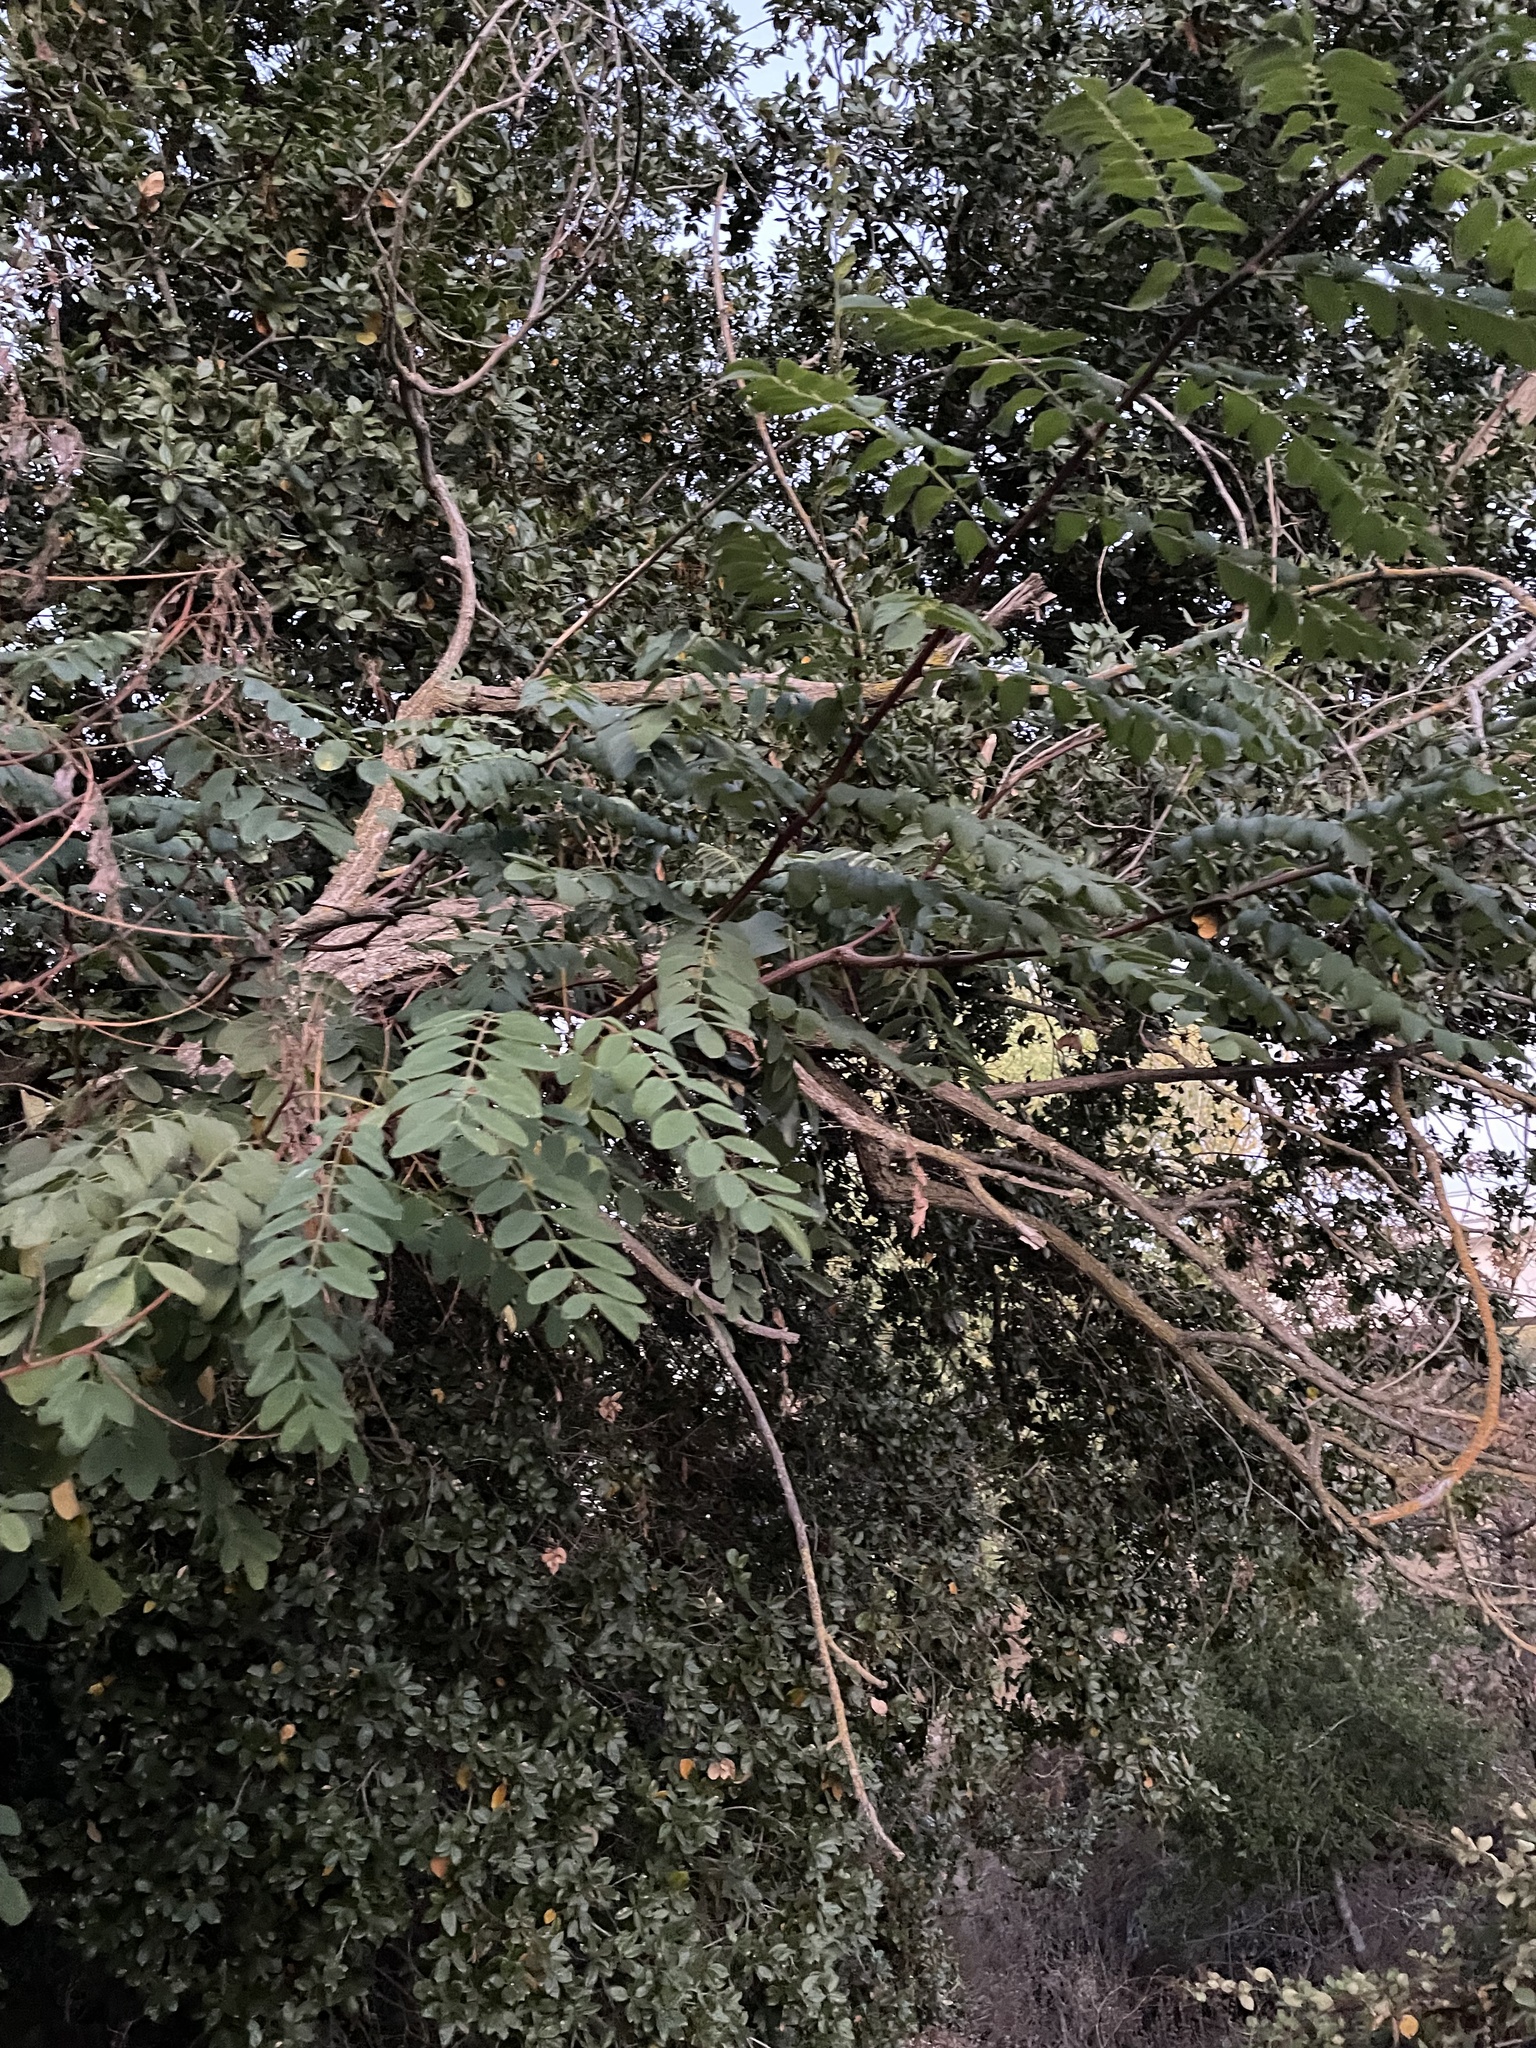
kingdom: Plantae
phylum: Tracheophyta
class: Magnoliopsida
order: Fabales
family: Fabaceae
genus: Robinia
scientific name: Robinia pseudoacacia
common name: Black locust
